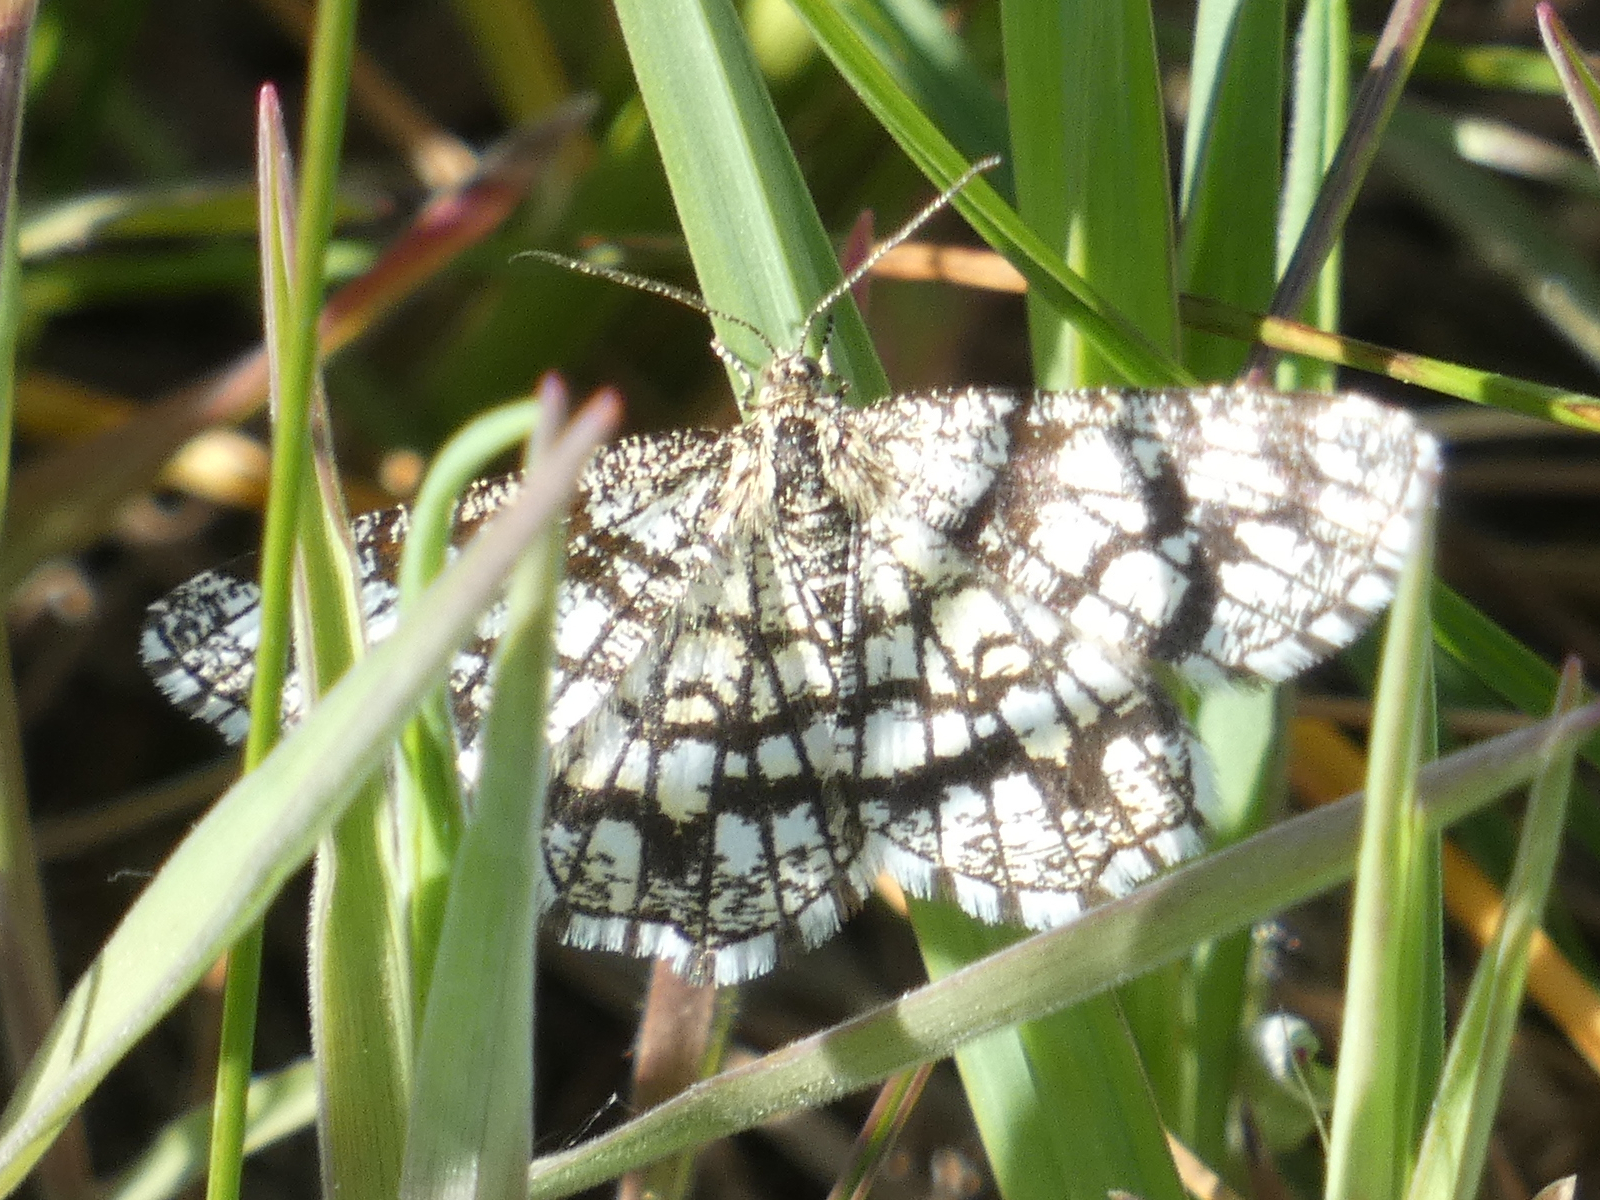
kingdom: Animalia
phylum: Arthropoda
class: Insecta
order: Lepidoptera
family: Geometridae
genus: Chiasmia
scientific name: Chiasmia clathrata
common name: Latticed heath
